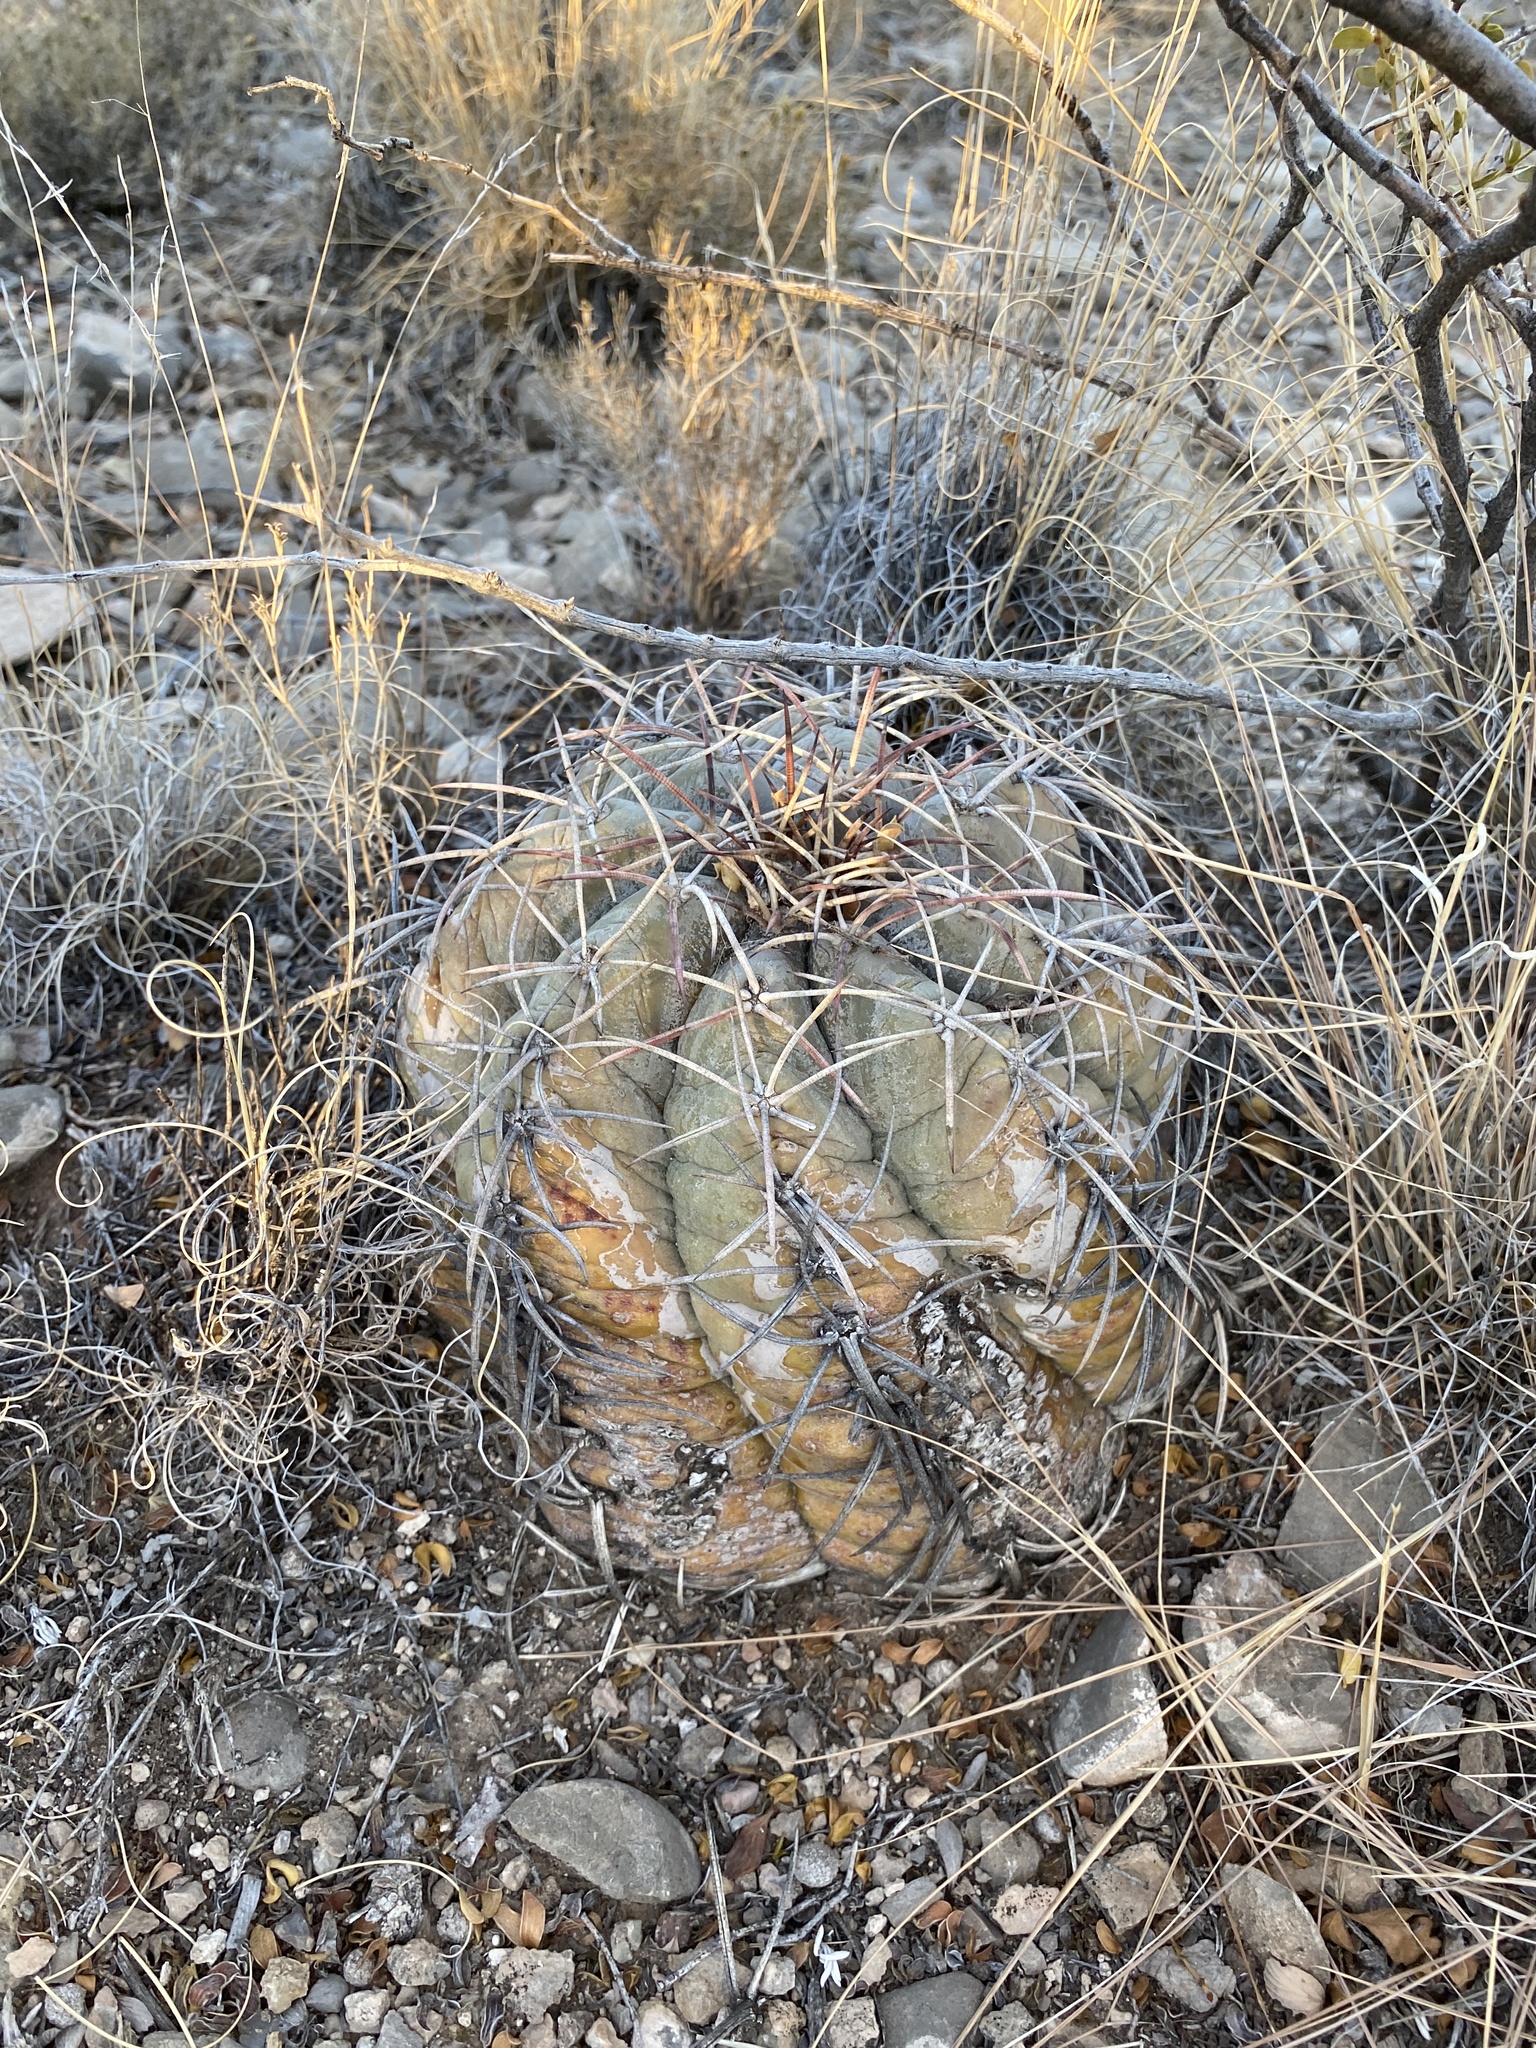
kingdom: Plantae
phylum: Tracheophyta
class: Magnoliopsida
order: Caryophyllales
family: Cactaceae
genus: Echinocactus
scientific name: Echinocactus horizonthalonius
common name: Devilshead
